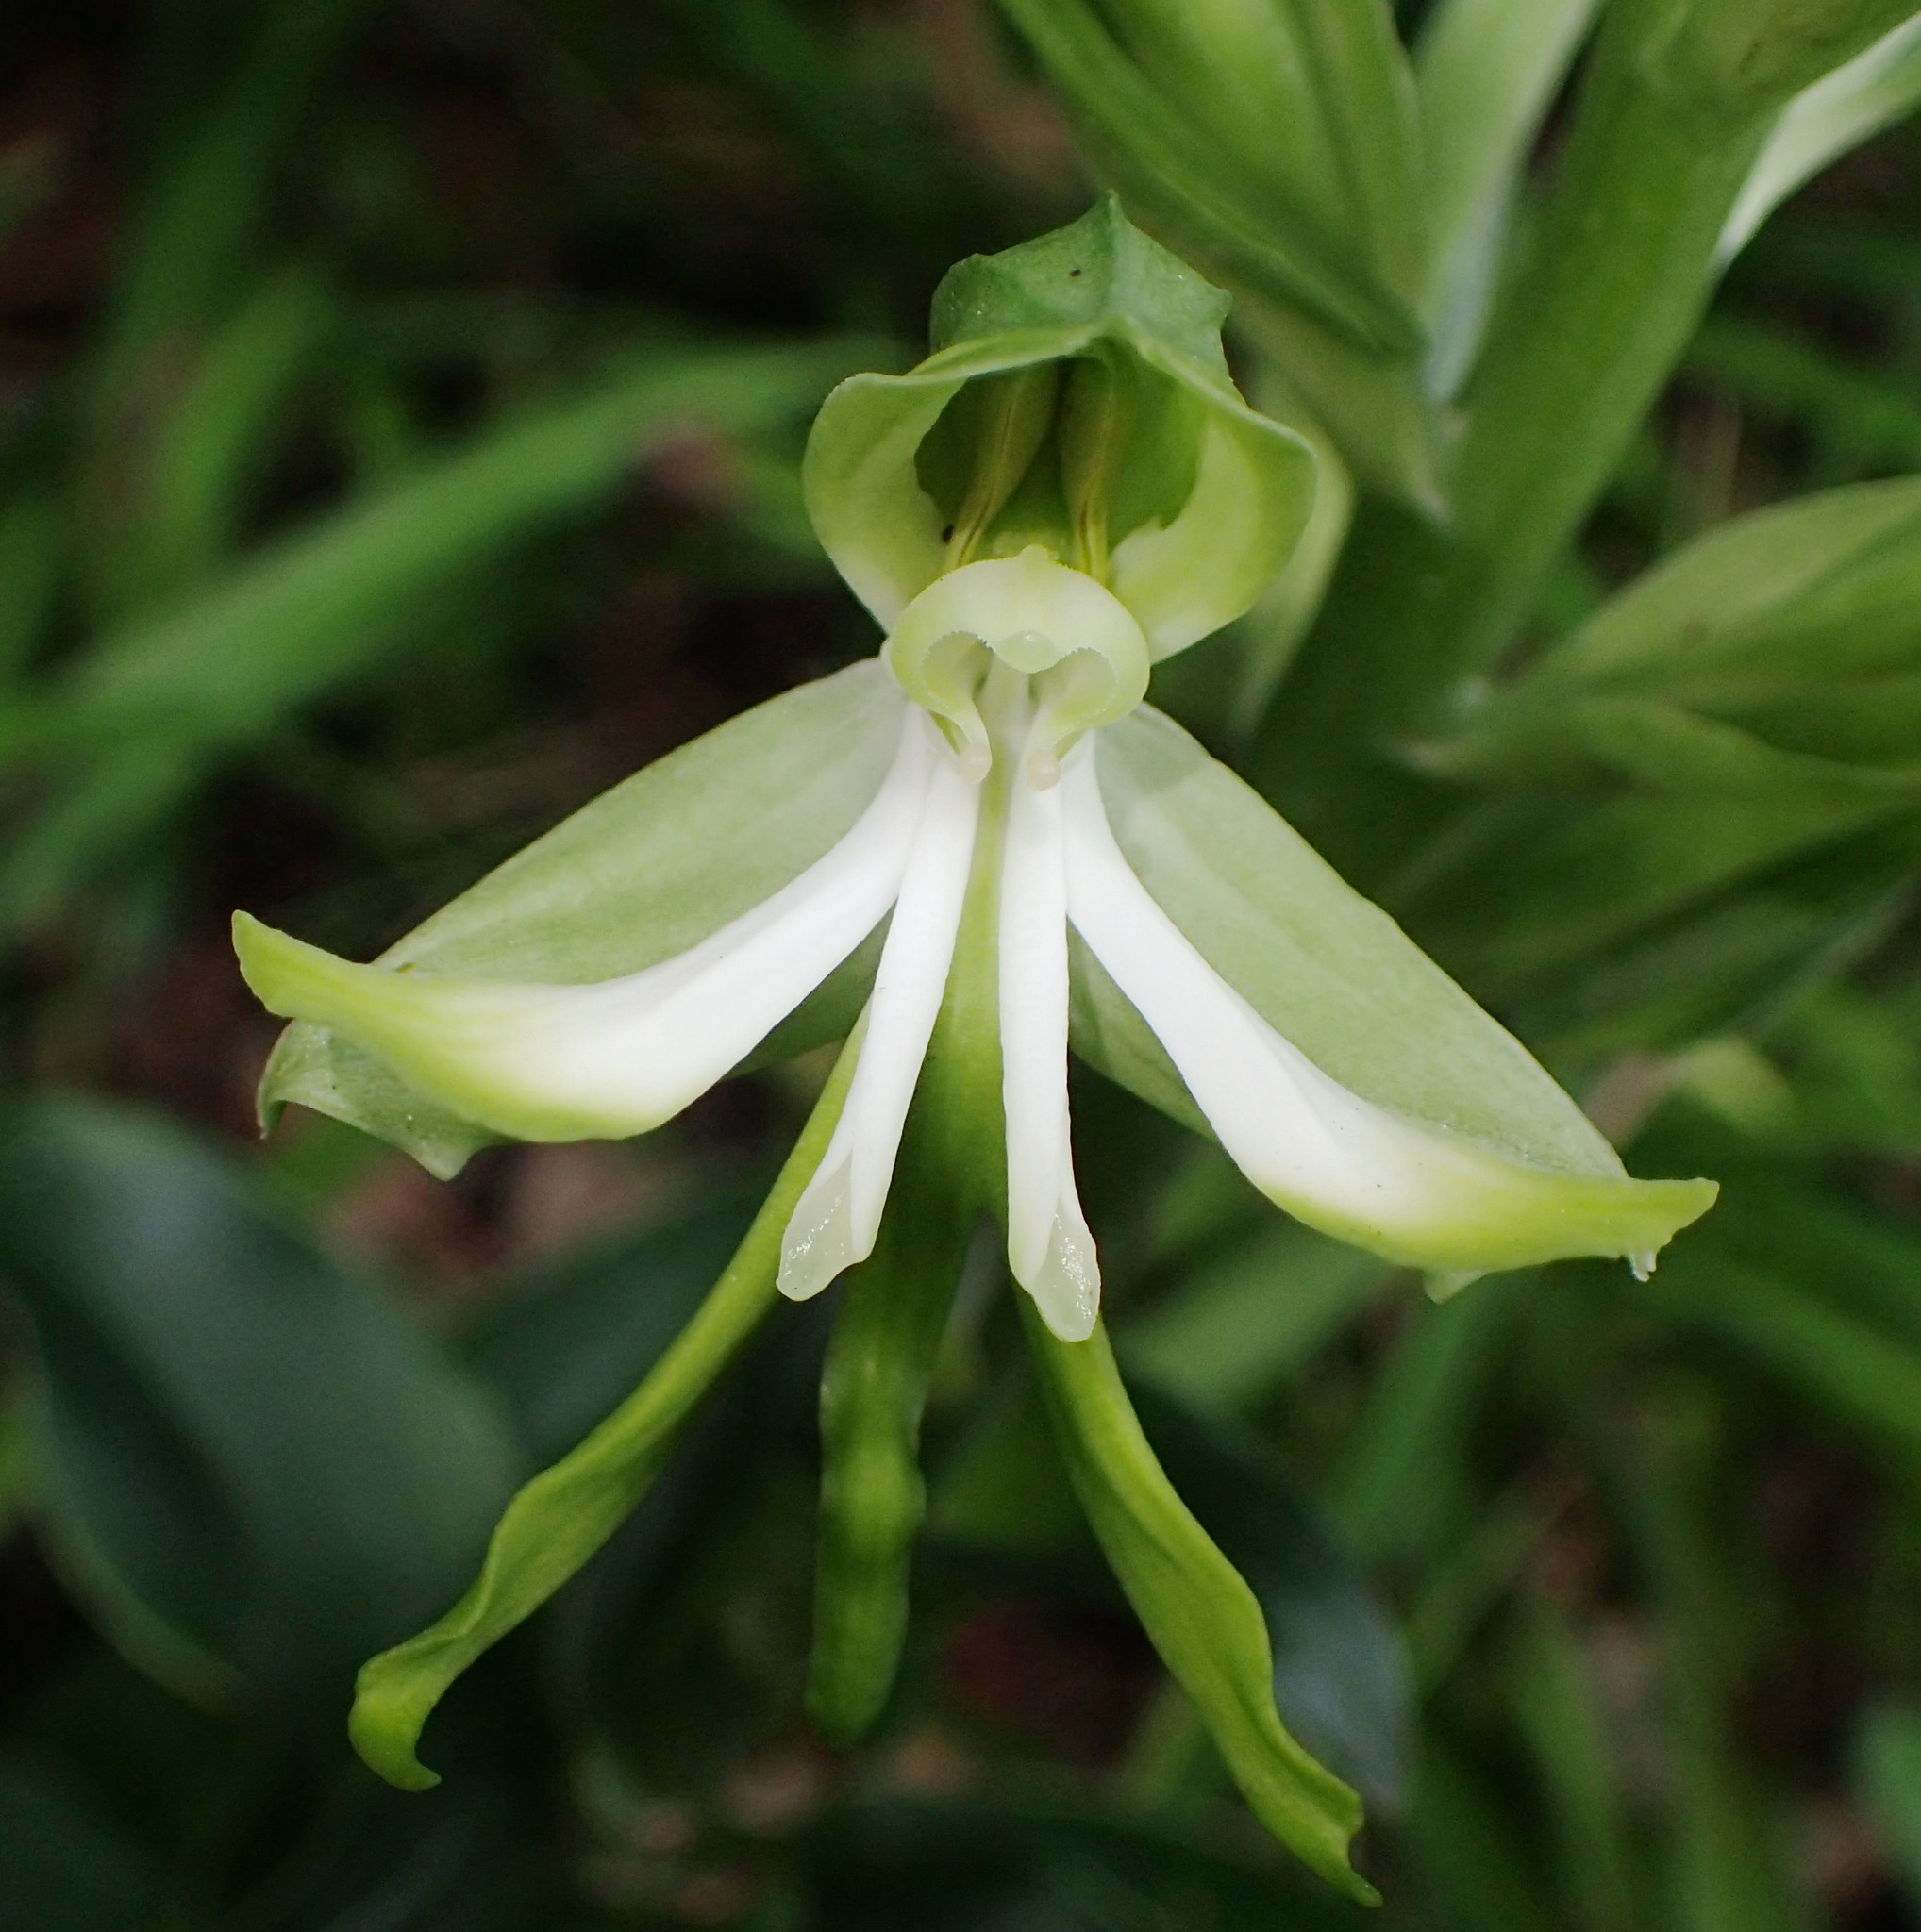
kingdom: Plantae
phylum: Tracheophyta
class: Liliopsida
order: Asparagales
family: Orchidaceae
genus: Bonatea
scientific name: Bonatea speciosa
